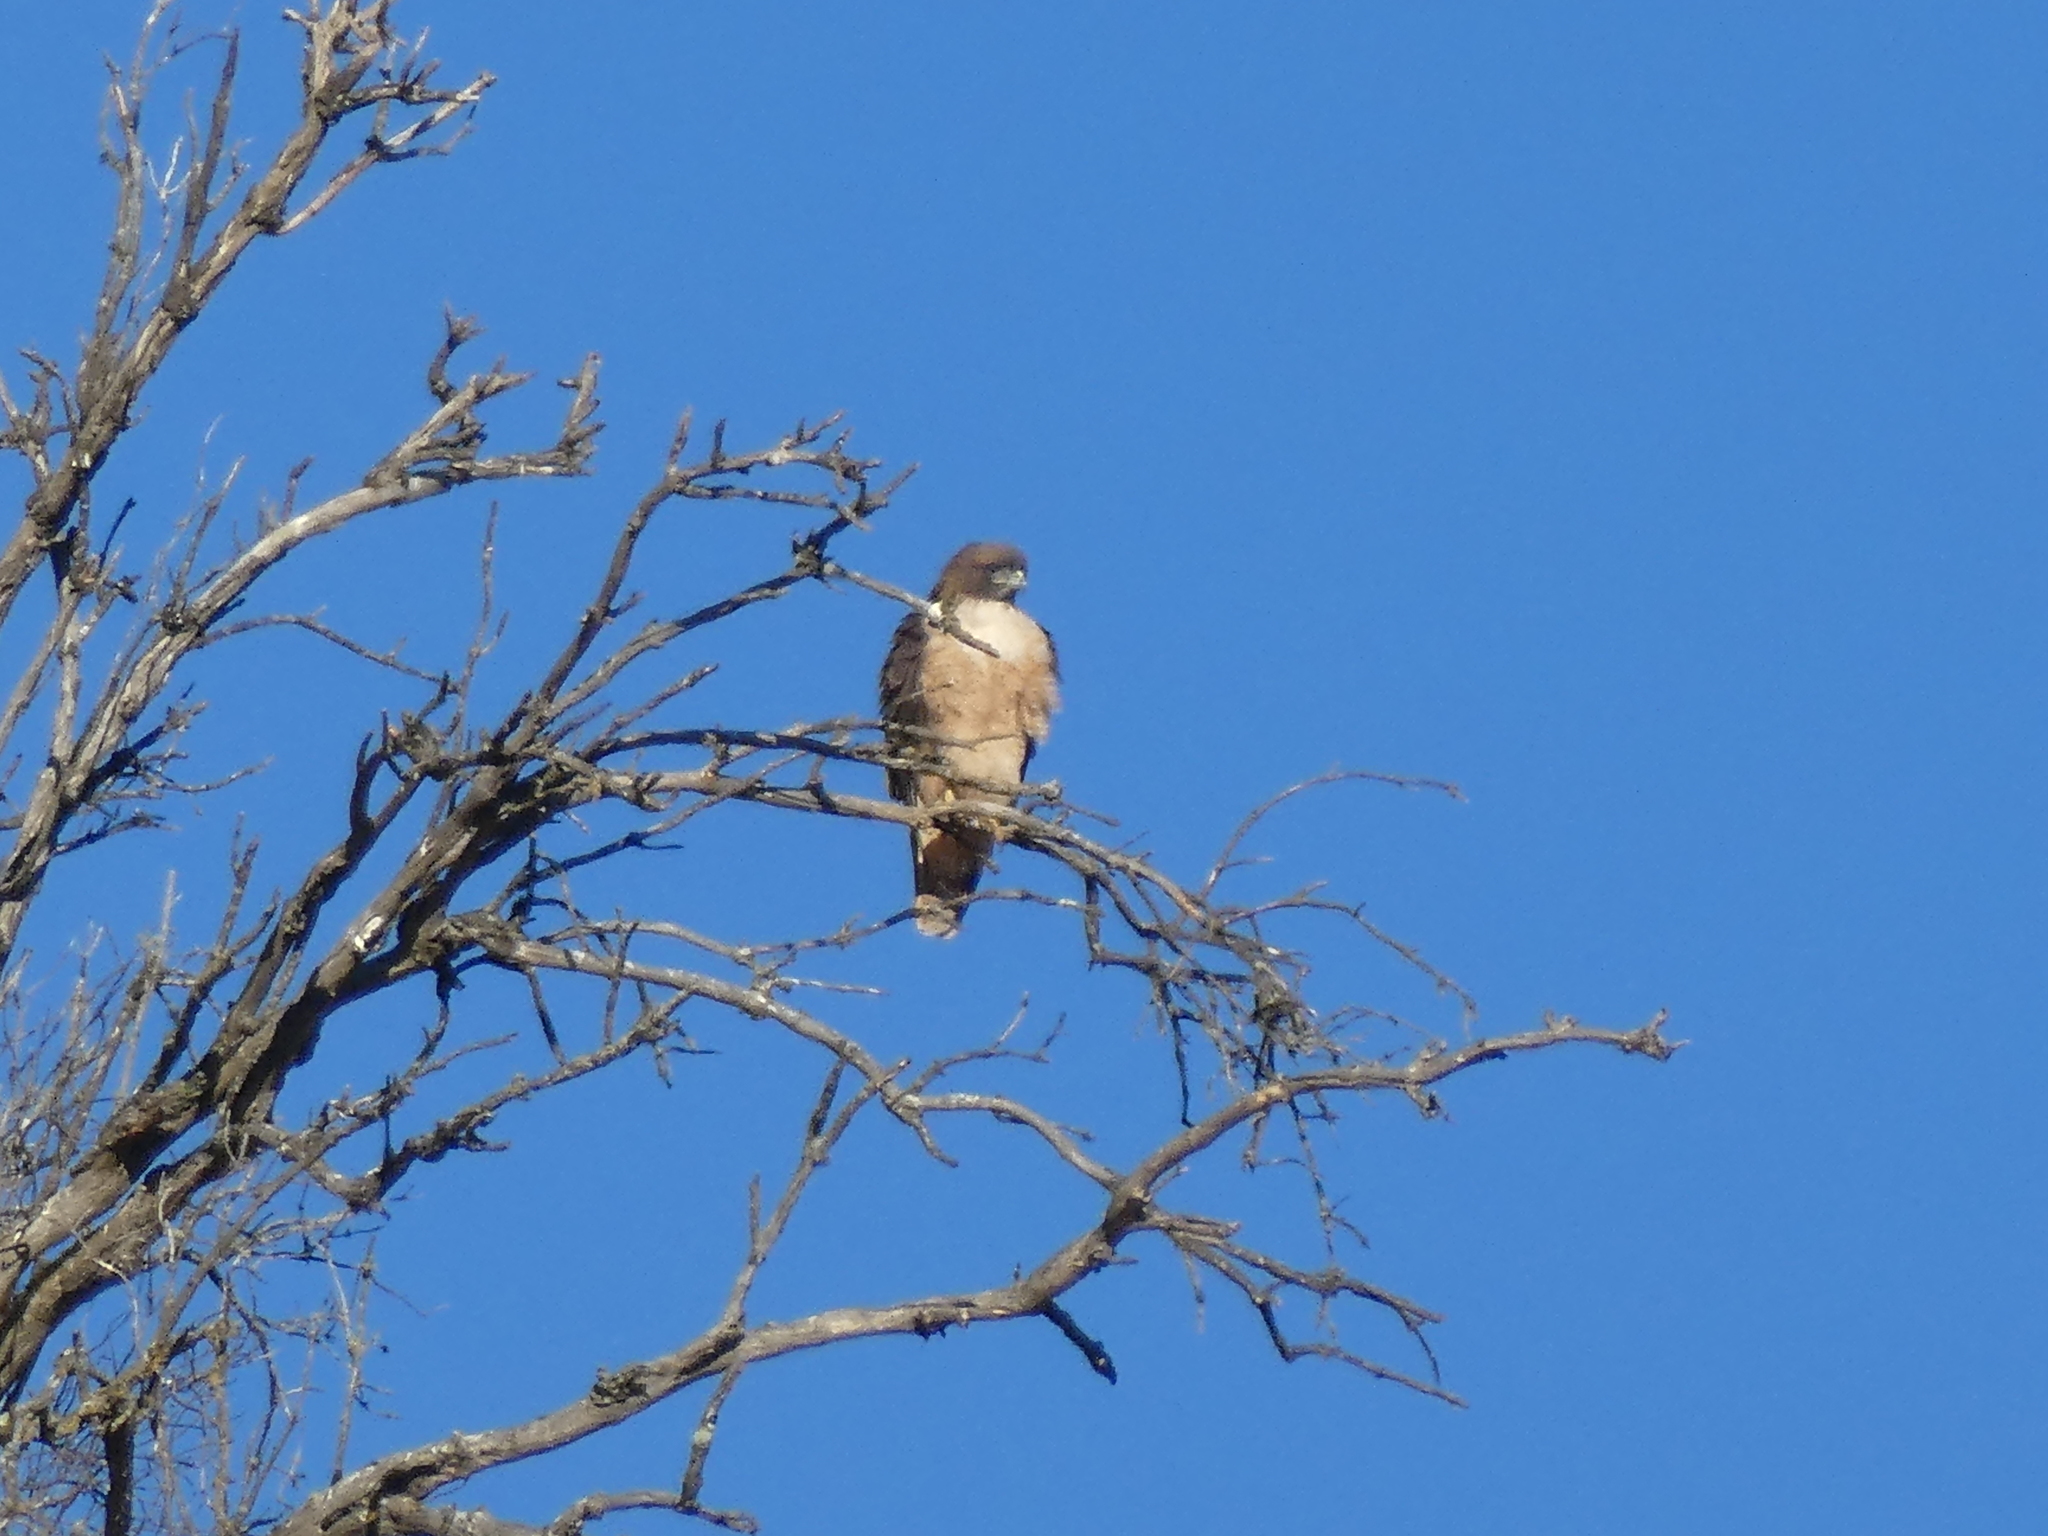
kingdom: Animalia
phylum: Chordata
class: Aves
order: Accipitriformes
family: Accipitridae
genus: Buteo
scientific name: Buteo jamaicensis
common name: Red-tailed hawk
